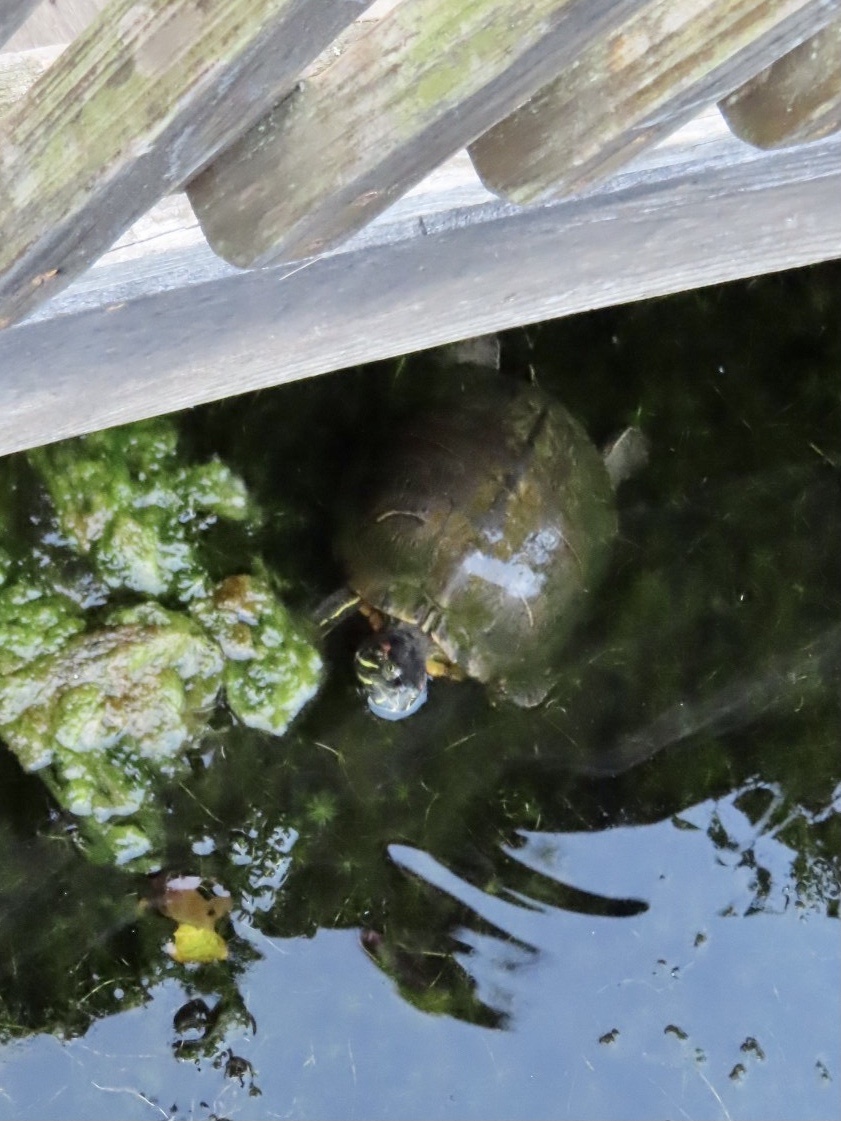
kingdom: Animalia
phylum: Chordata
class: Testudines
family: Emydidae
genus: Trachemys
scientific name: Trachemys scripta
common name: Slider
